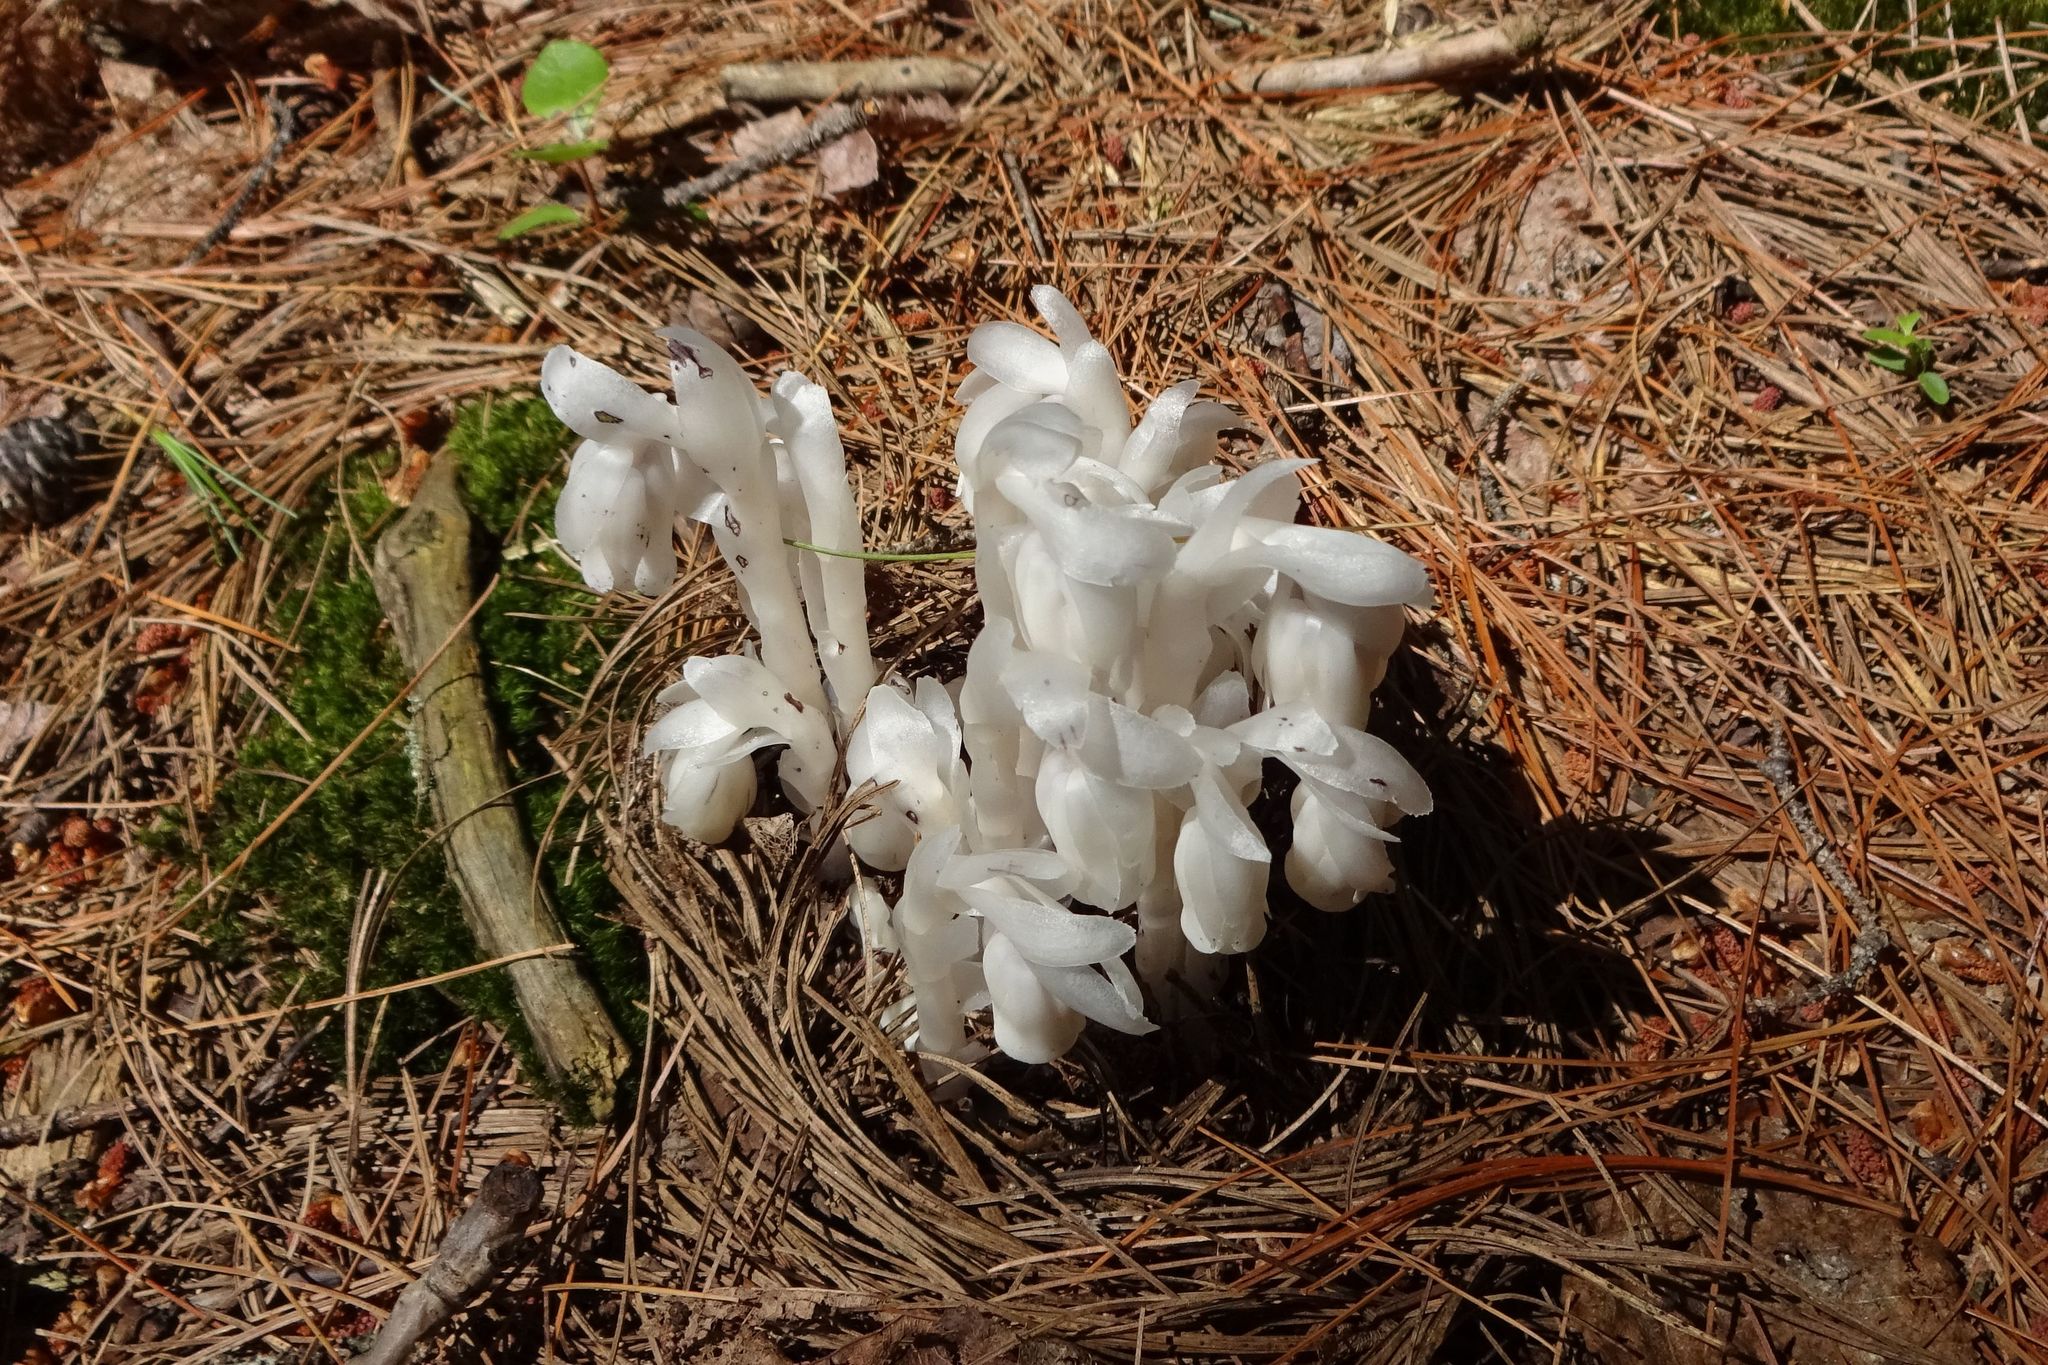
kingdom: Plantae
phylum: Tracheophyta
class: Magnoliopsida
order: Ericales
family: Ericaceae
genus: Monotropa
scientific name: Monotropa uniflora
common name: Convulsion root
